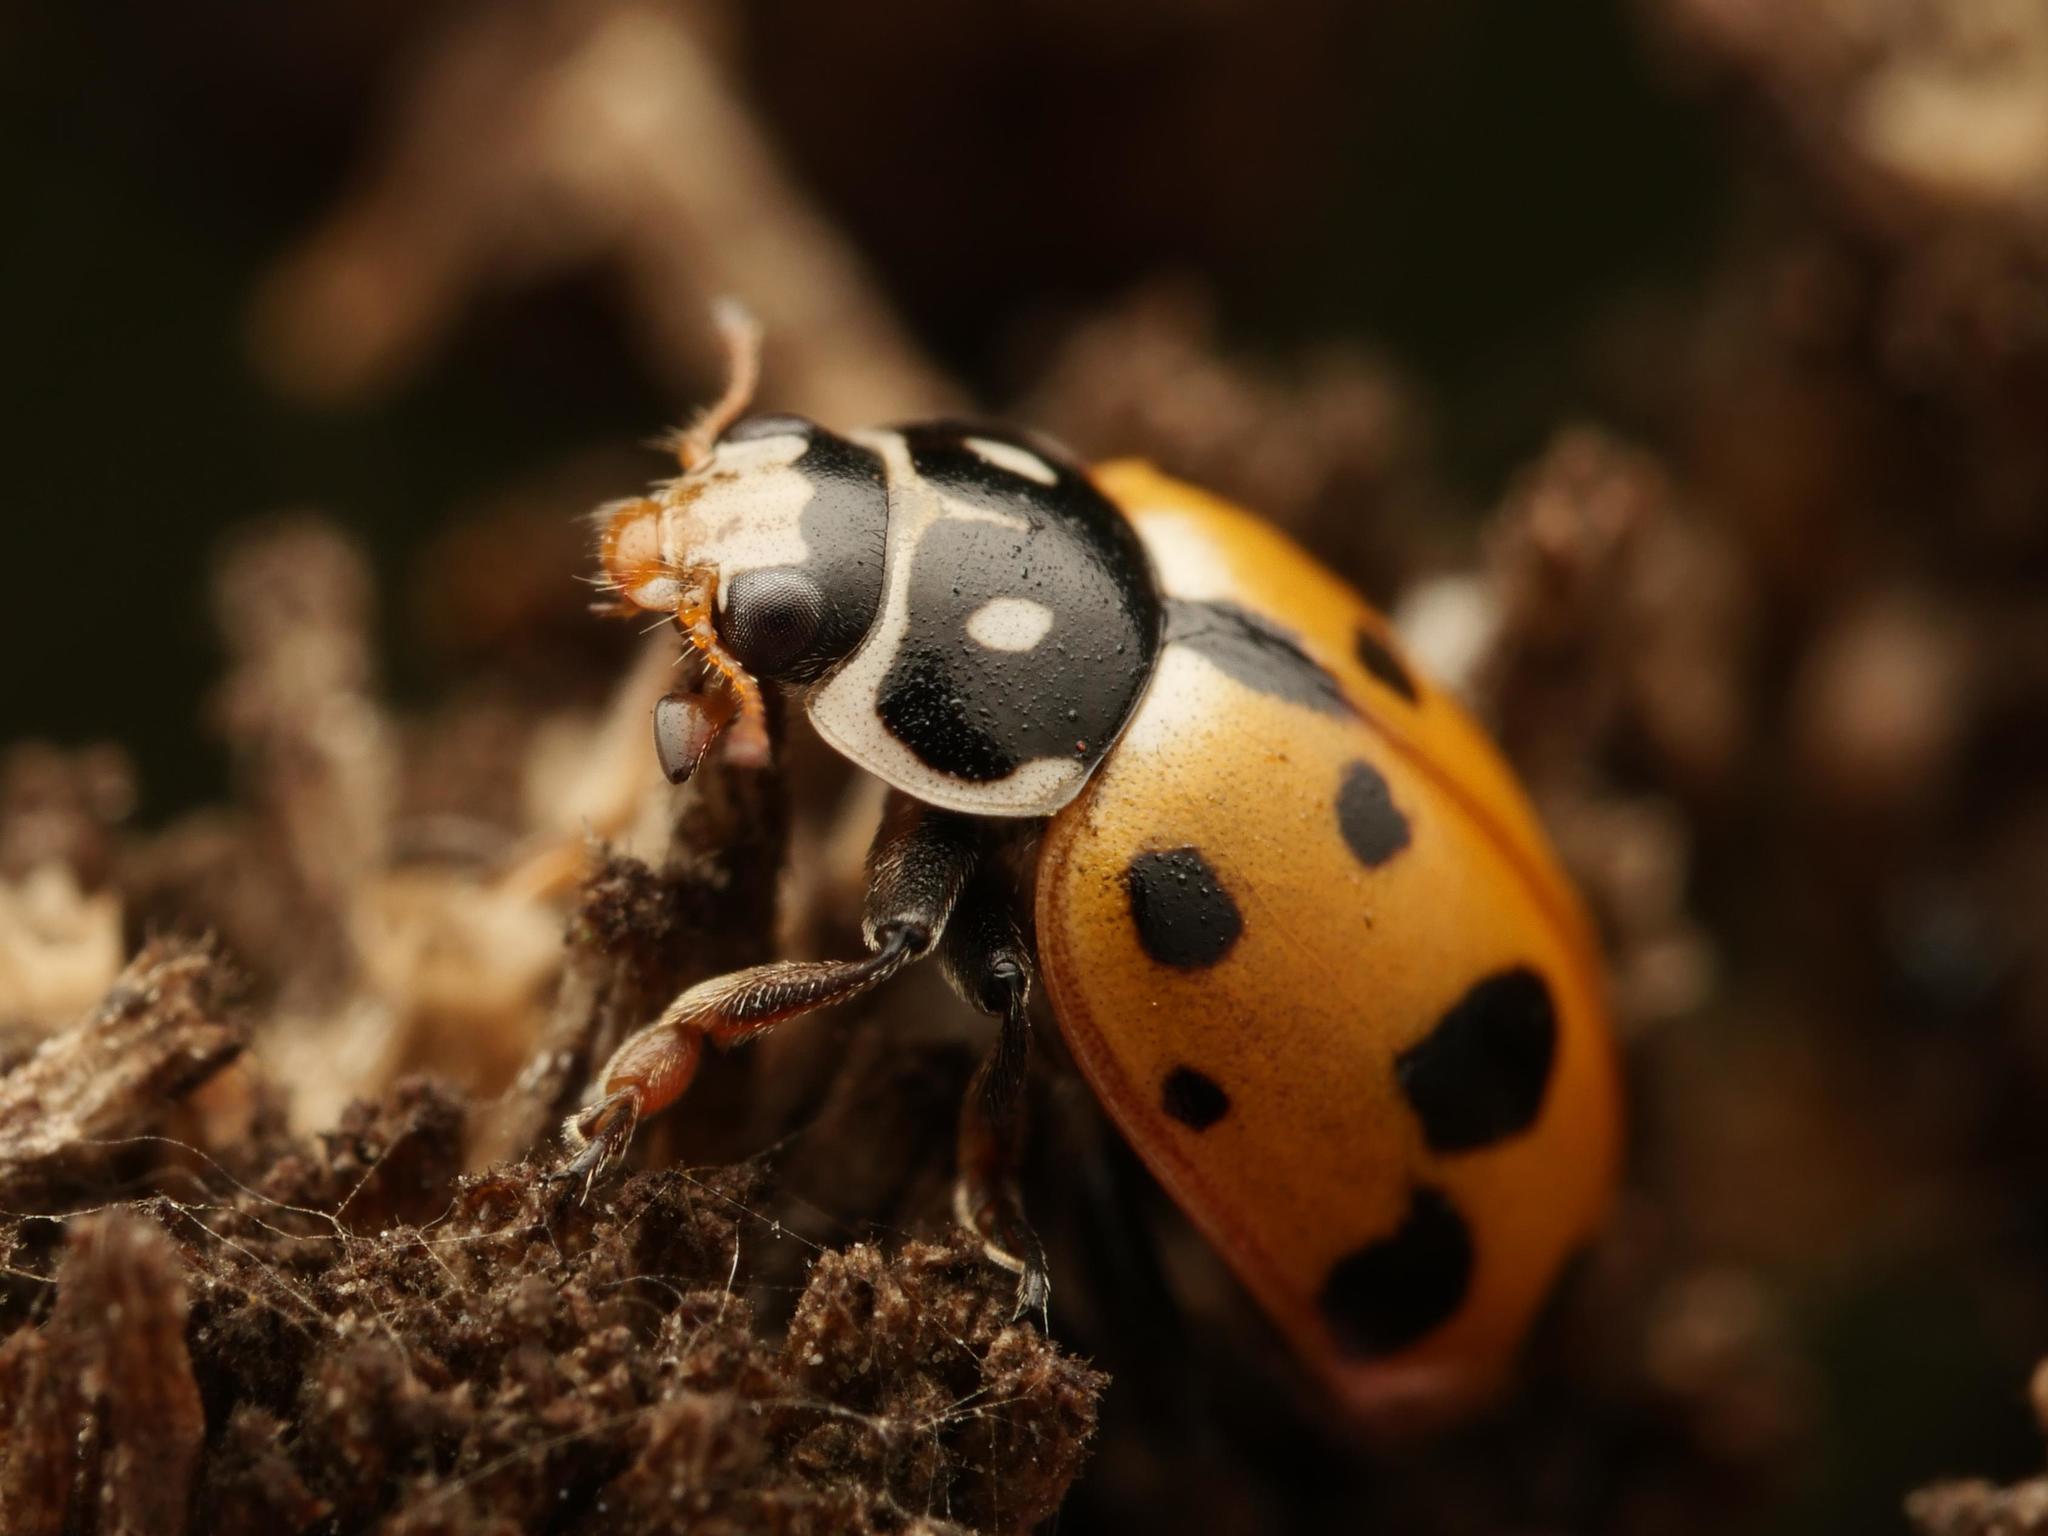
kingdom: Animalia
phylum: Arthropoda
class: Insecta
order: Coleoptera
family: Coccinellidae
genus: Hippodamia
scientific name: Hippodamia variegata
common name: Ladybird beetle
